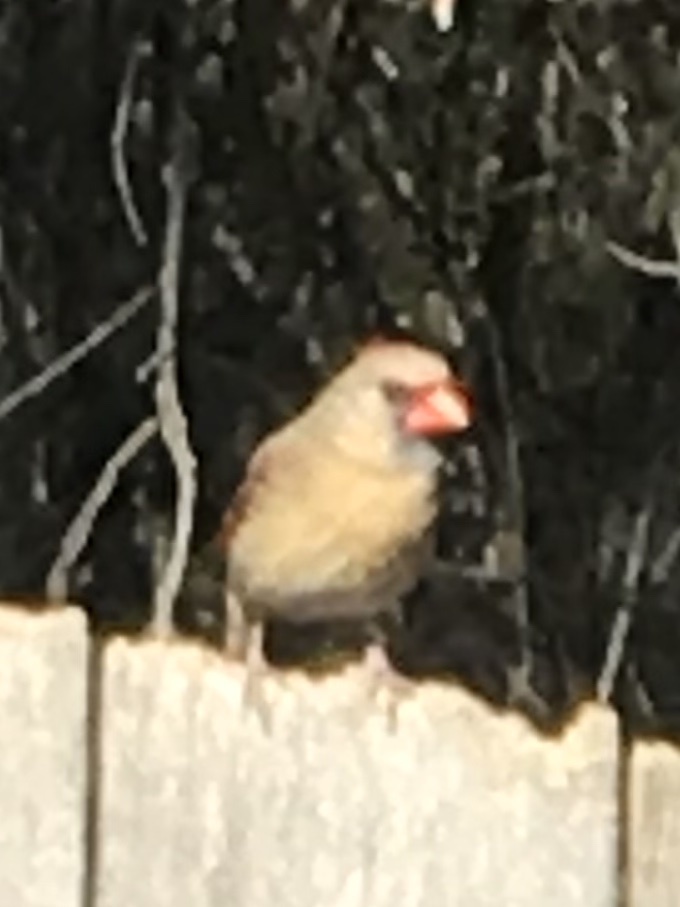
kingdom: Animalia
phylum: Chordata
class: Aves
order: Passeriformes
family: Cardinalidae
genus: Cardinalis
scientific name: Cardinalis cardinalis
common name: Northern cardinal
